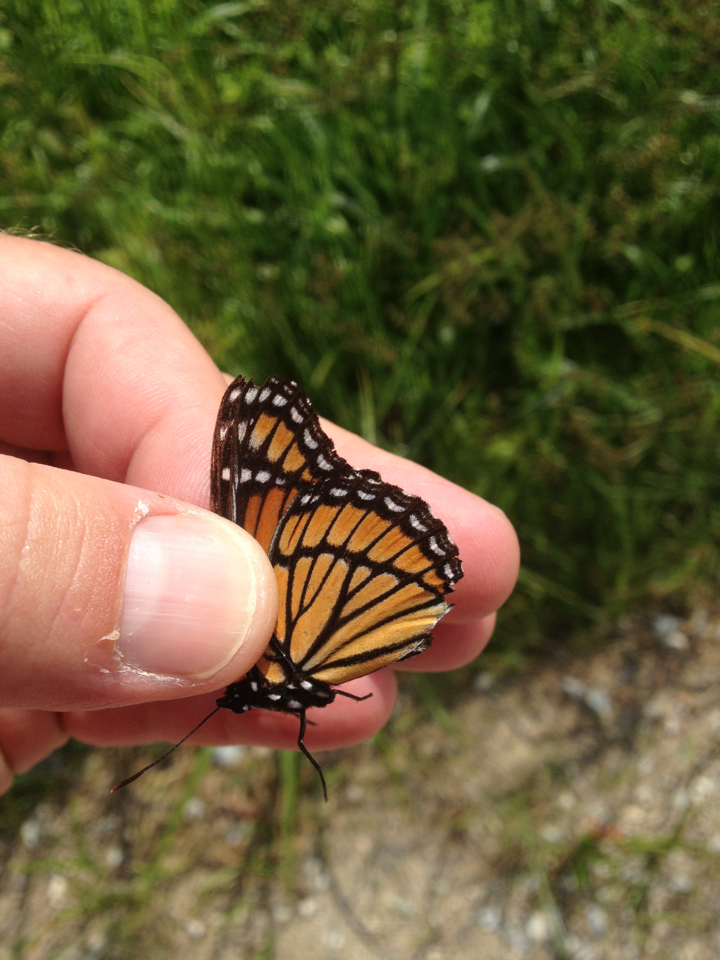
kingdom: Animalia
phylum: Arthropoda
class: Insecta
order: Lepidoptera
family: Nymphalidae
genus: Limenitis
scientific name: Limenitis archippus
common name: Viceroy
